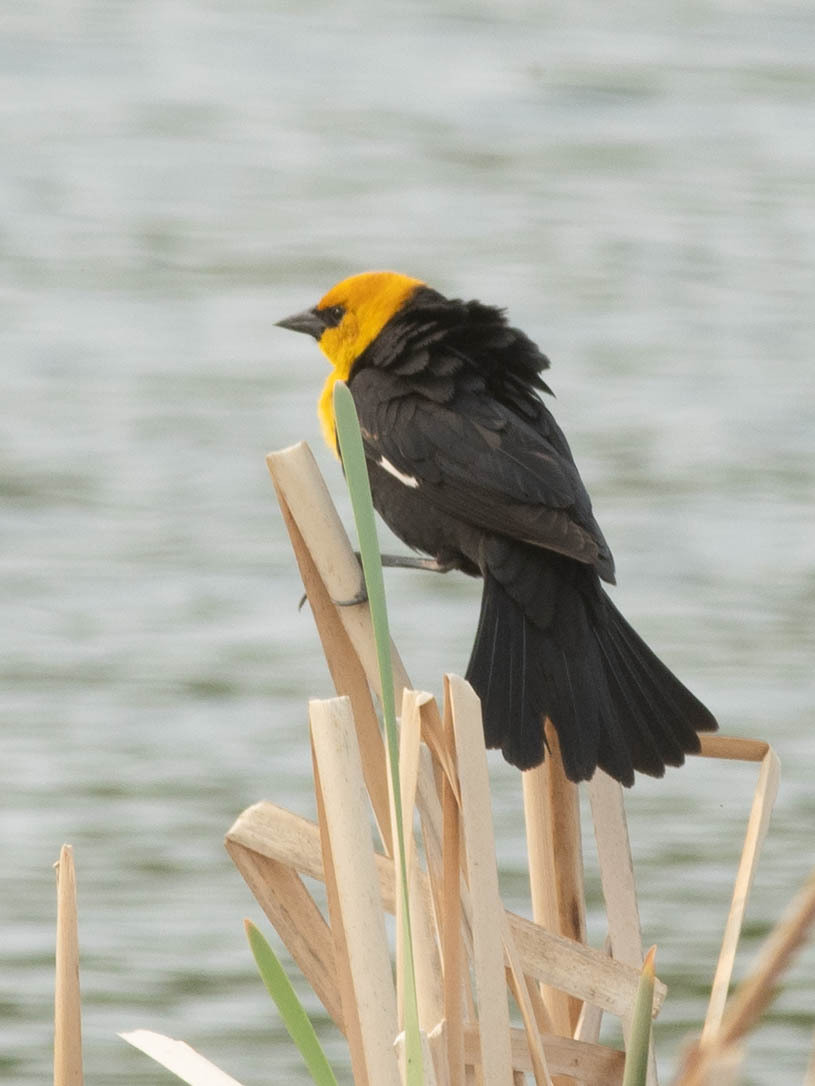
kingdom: Animalia
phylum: Chordata
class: Aves
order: Passeriformes
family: Icteridae
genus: Xanthocephalus
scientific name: Xanthocephalus xanthocephalus
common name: Yellow-headed blackbird
